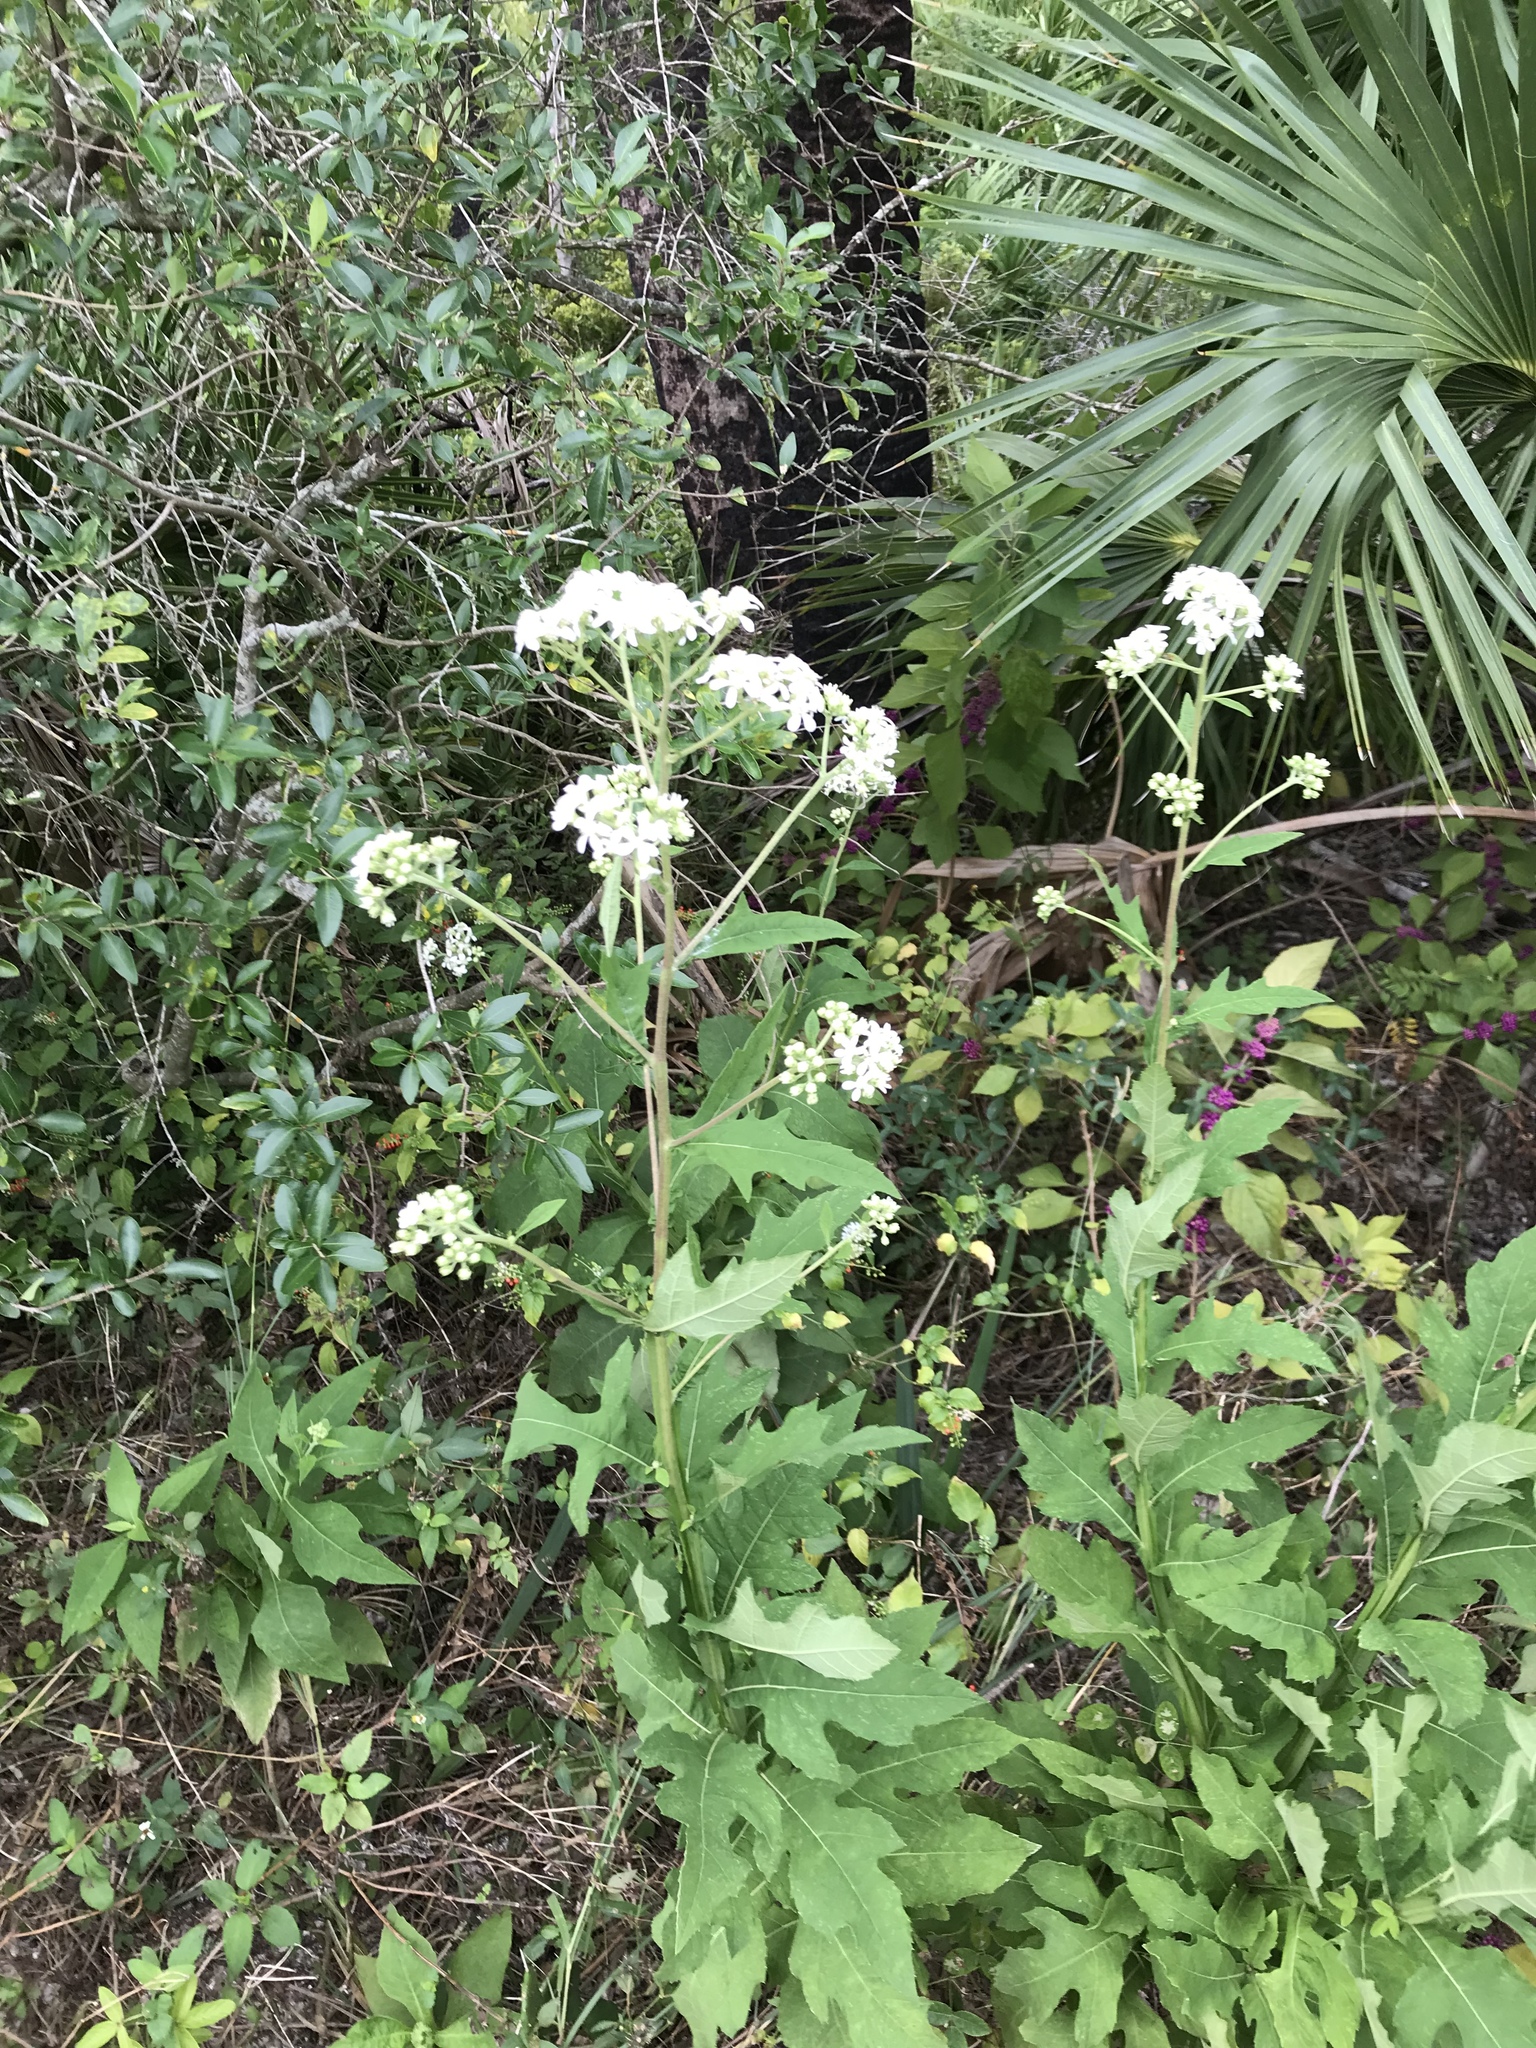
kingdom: Plantae
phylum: Tracheophyta
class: Magnoliopsida
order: Asterales
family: Asteraceae
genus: Verbesina
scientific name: Verbesina virginica
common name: Frostweed
